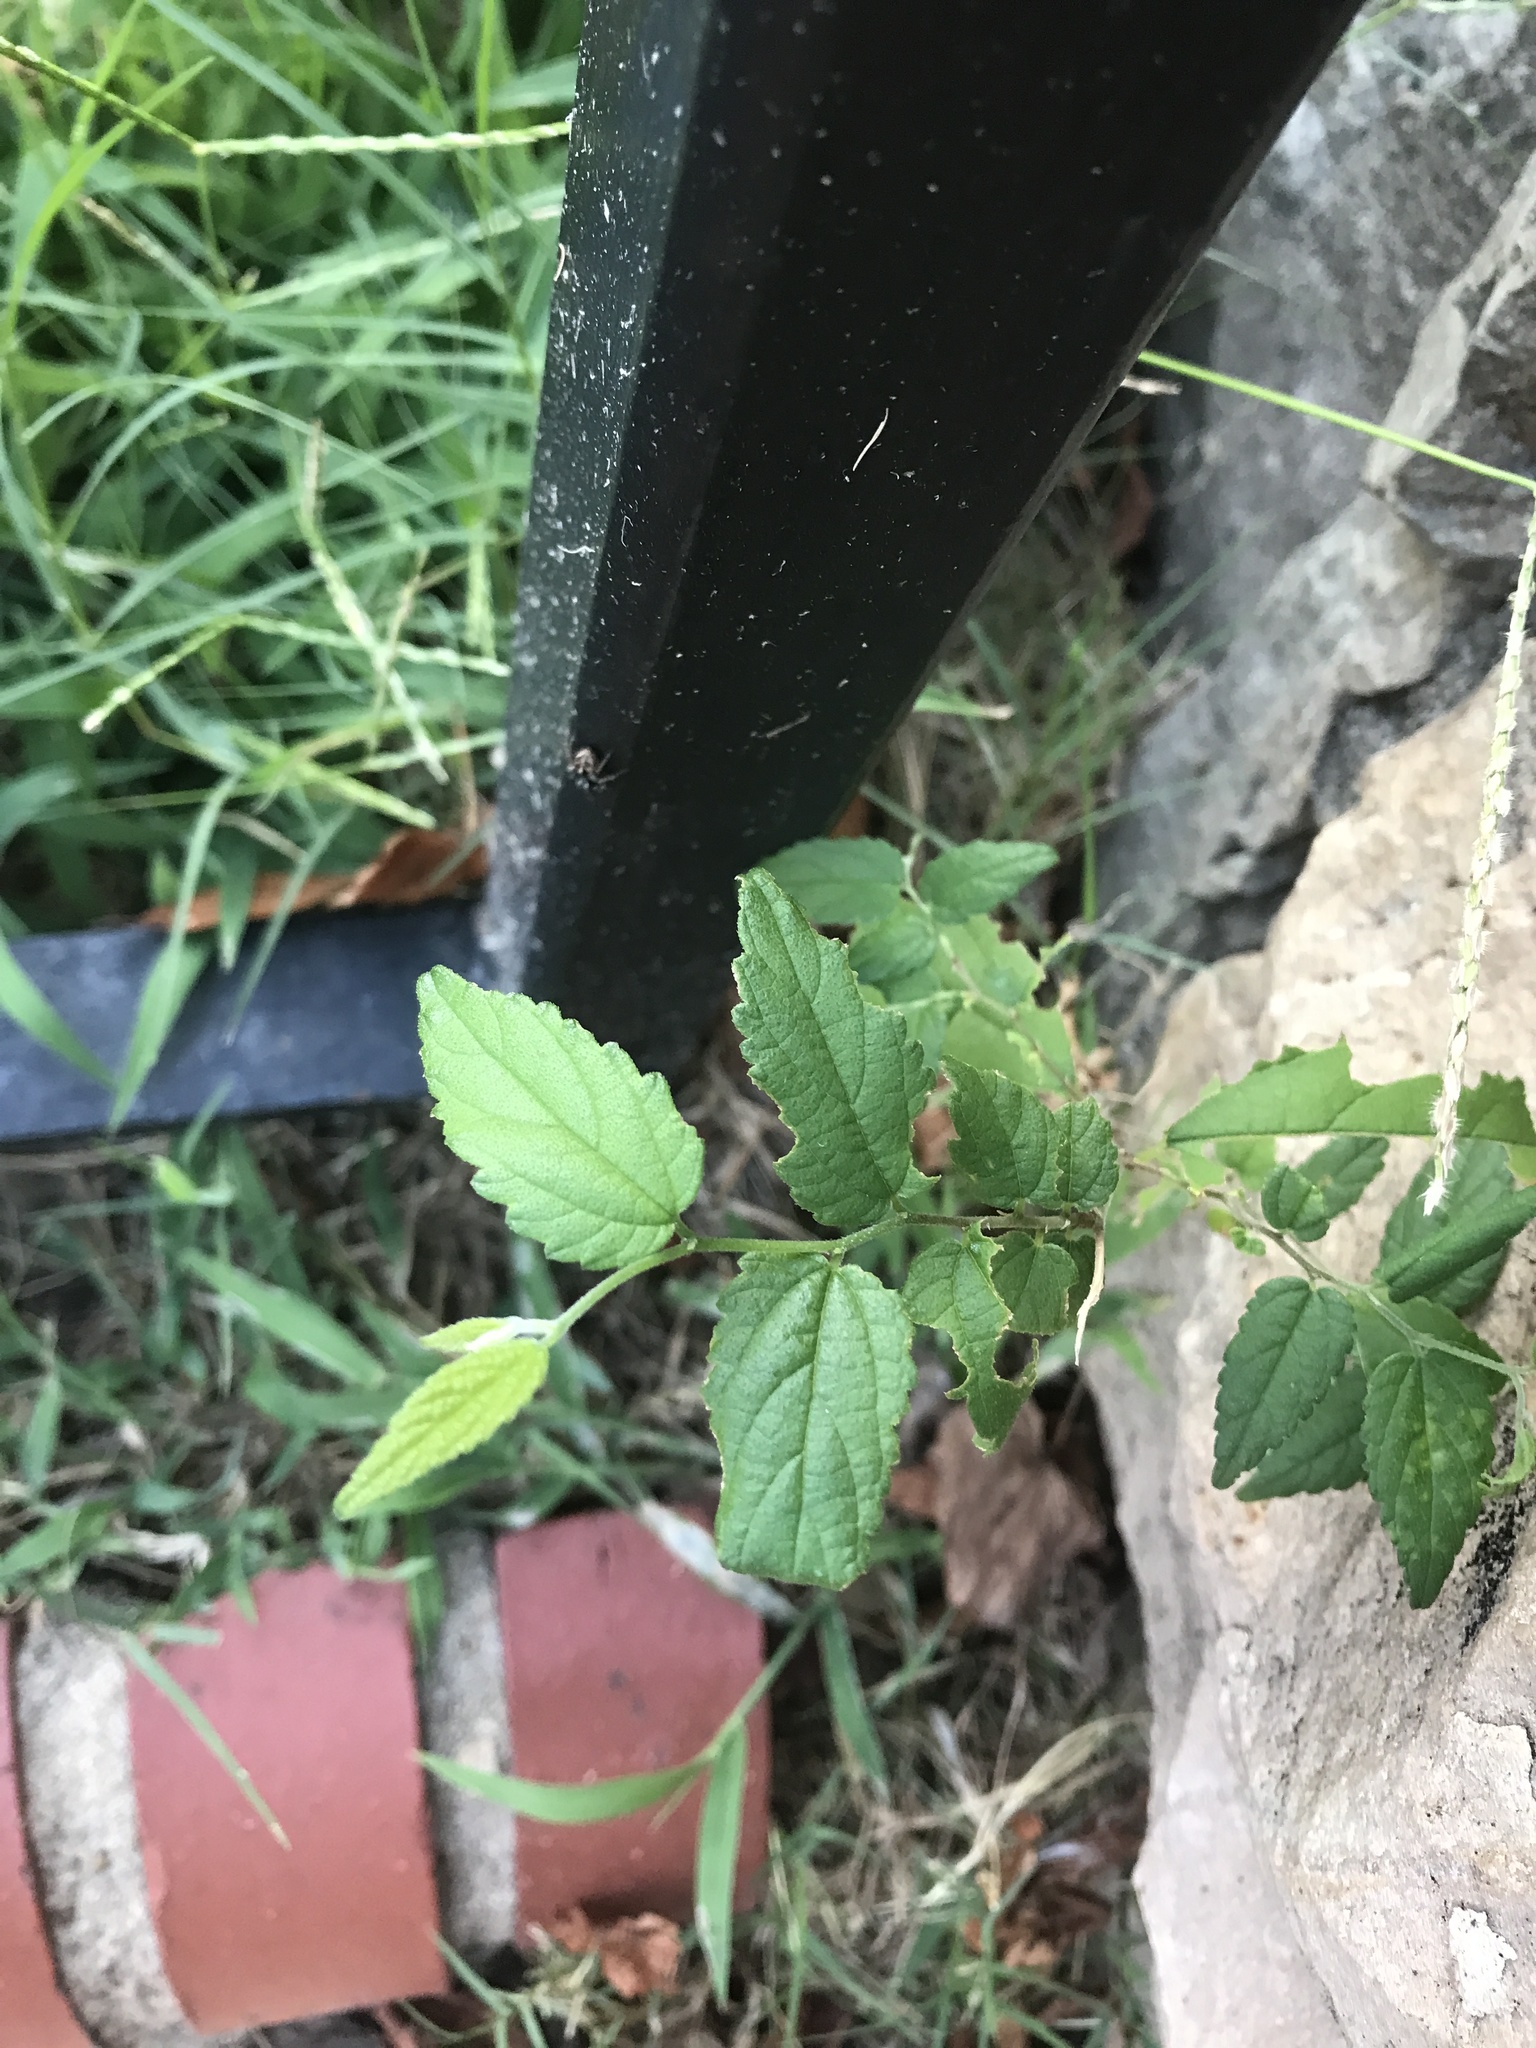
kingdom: Plantae
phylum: Tracheophyta
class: Magnoliopsida
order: Rosales
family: Cannabaceae
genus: Celtis
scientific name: Celtis laevigata
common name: Sugarberry
